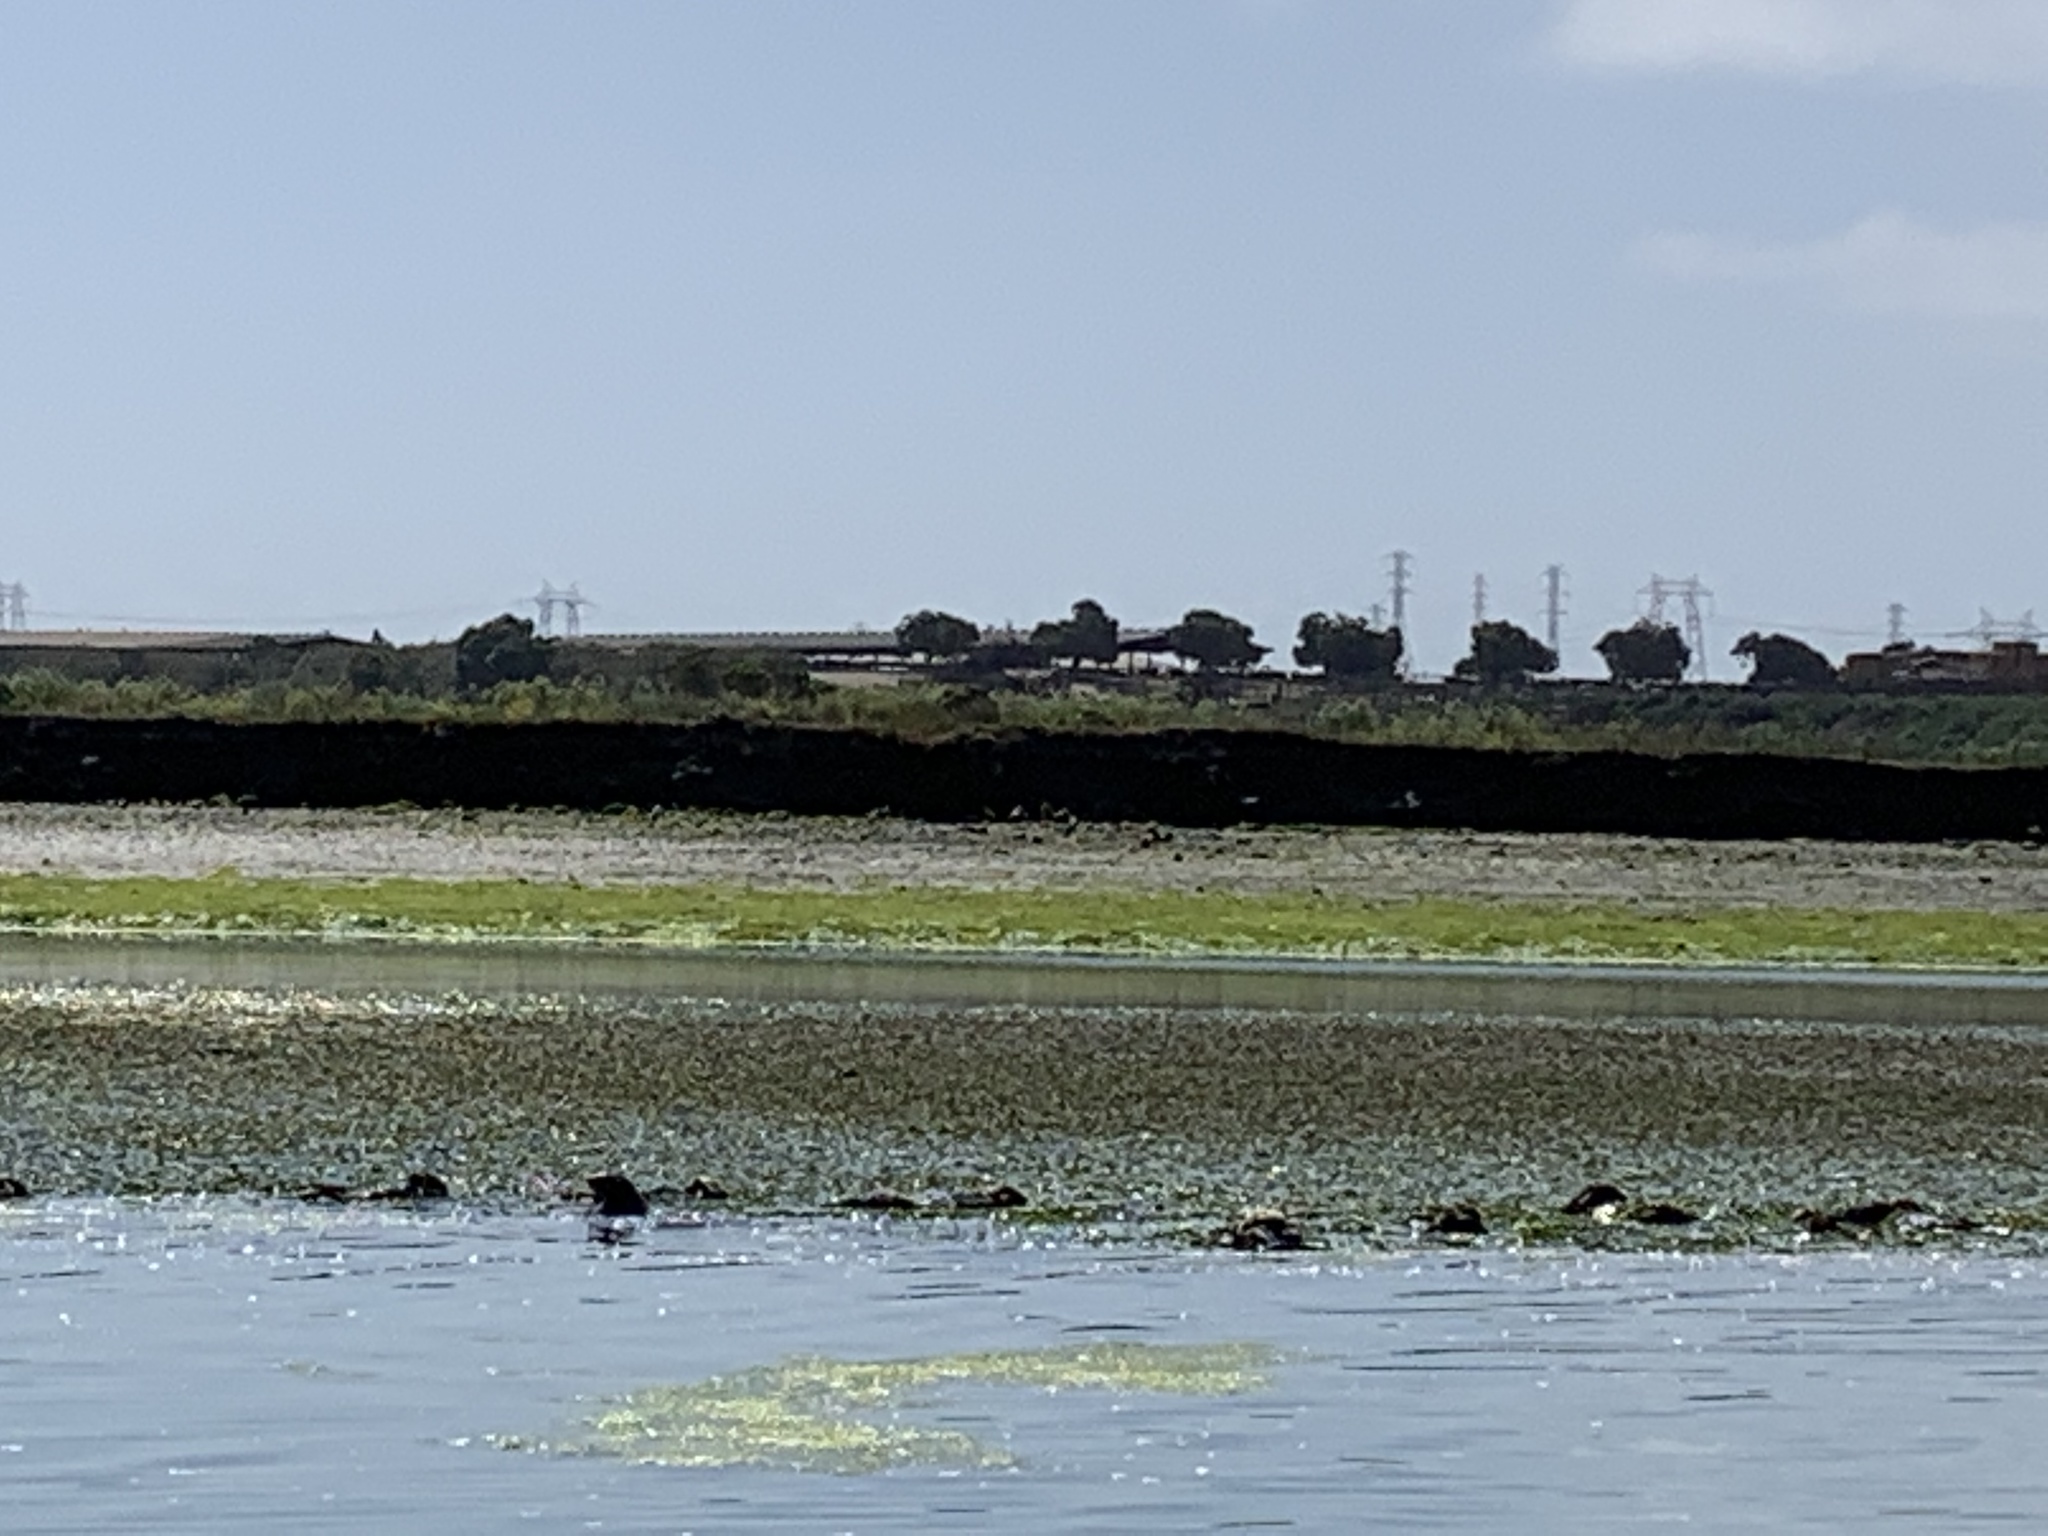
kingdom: Animalia
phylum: Chordata
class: Mammalia
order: Carnivora
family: Mustelidae
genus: Enhydra
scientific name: Enhydra lutris
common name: Sea otter
